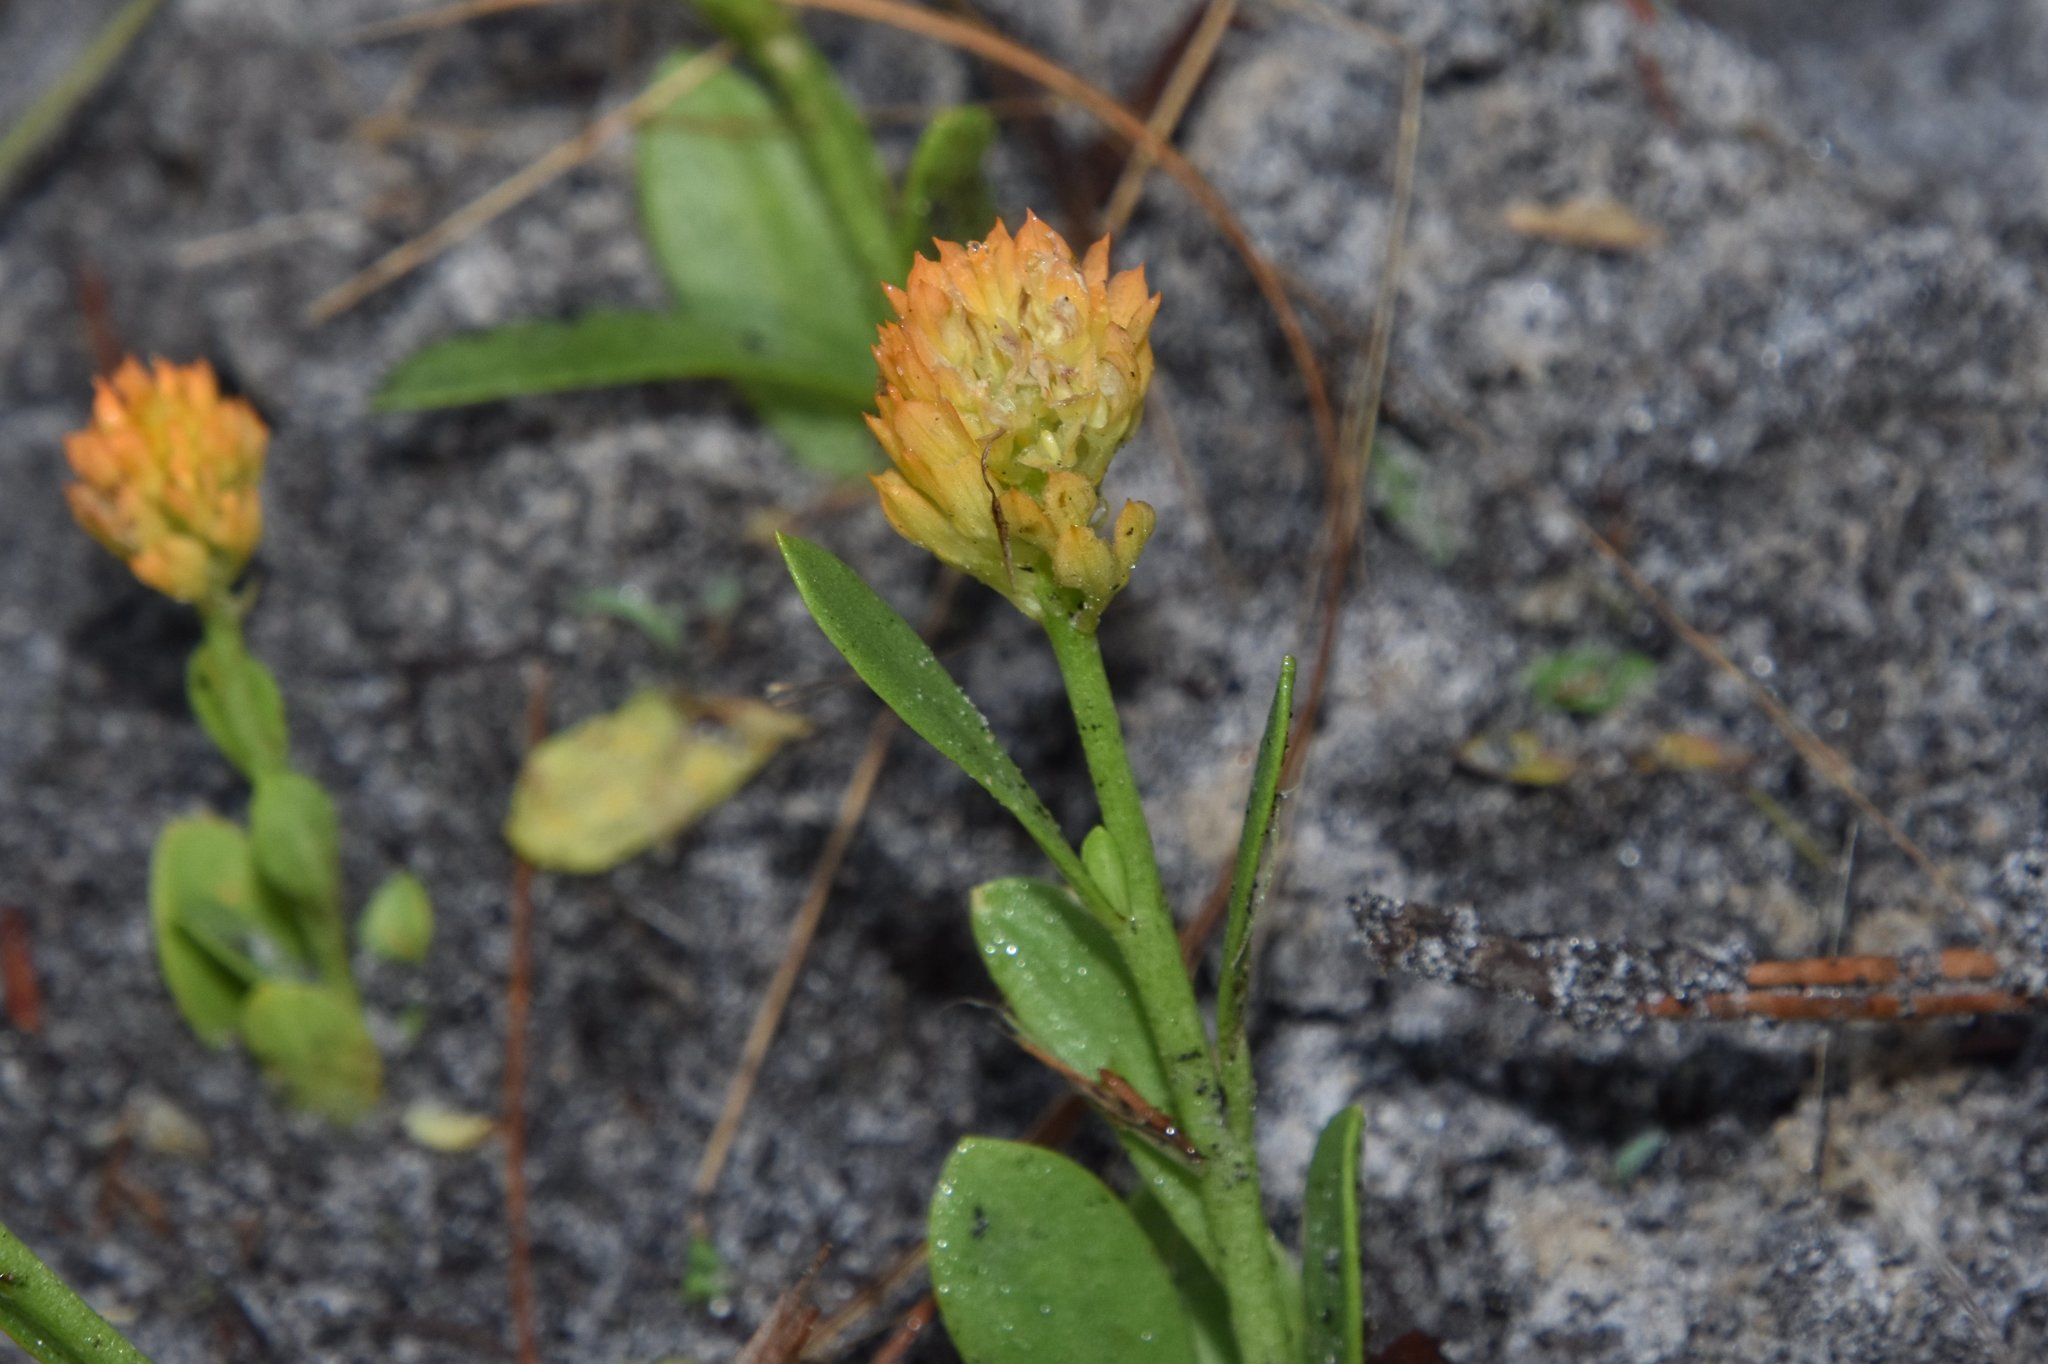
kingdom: Plantae
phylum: Tracheophyta
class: Magnoliopsida
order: Fabales
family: Polygalaceae
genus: Polygala
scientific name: Polygala lutea
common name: Orange milkwort
